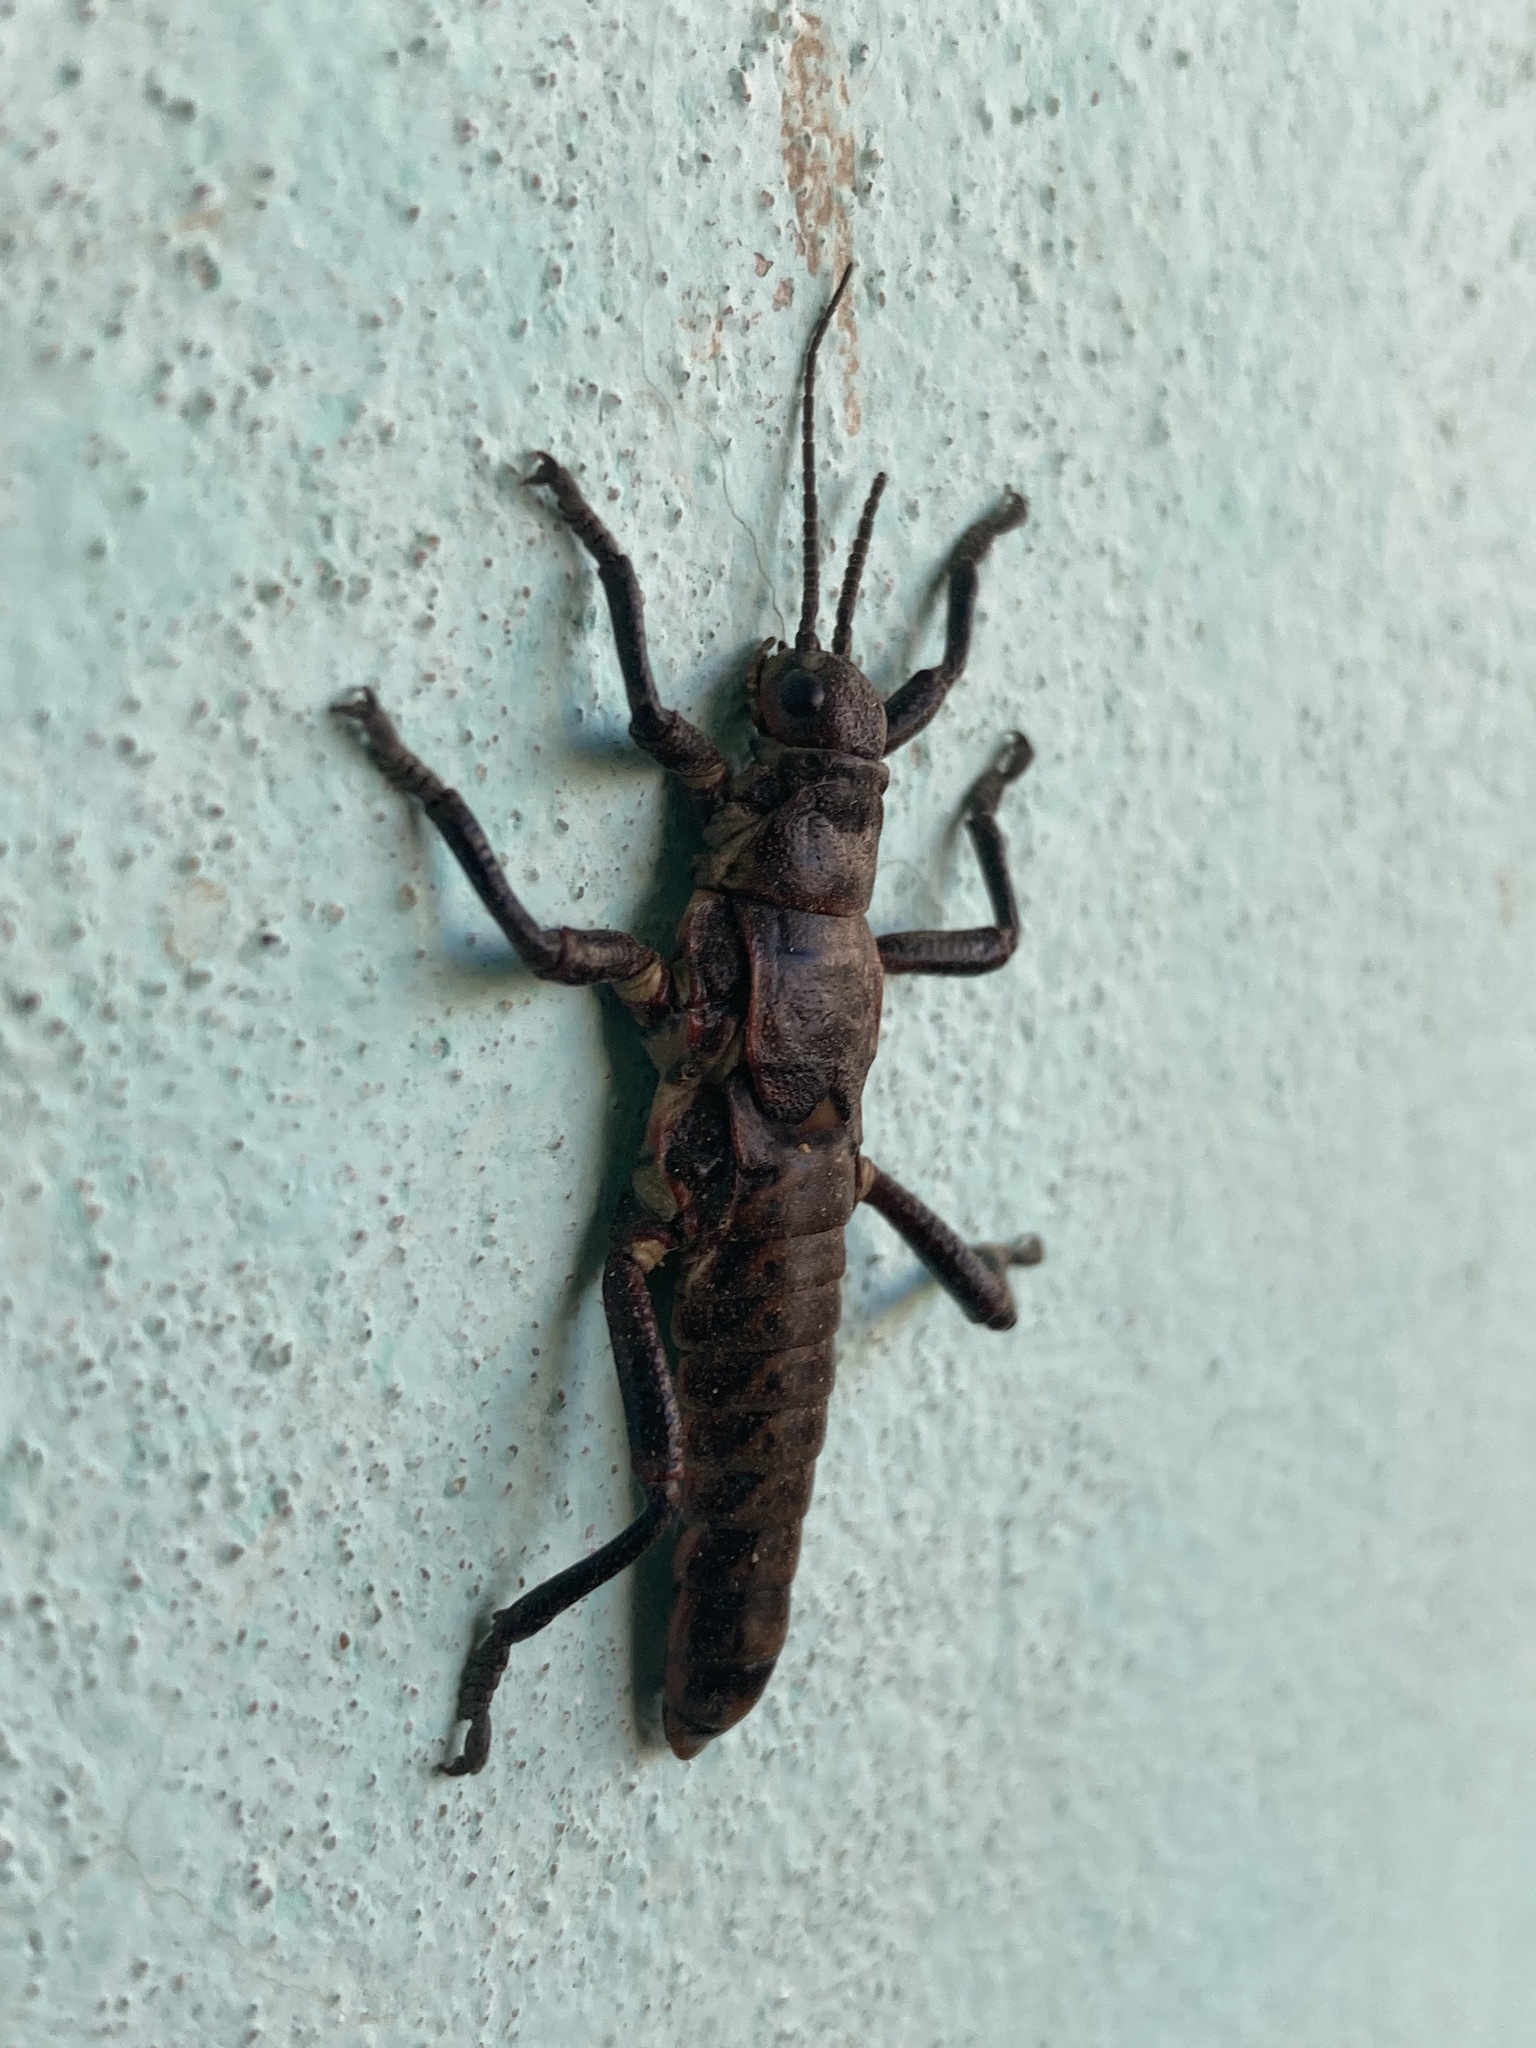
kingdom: Animalia
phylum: Arthropoda
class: Insecta
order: Phasmida
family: Agathemeridae
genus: Agathemera
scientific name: Agathemera maculafulgens
